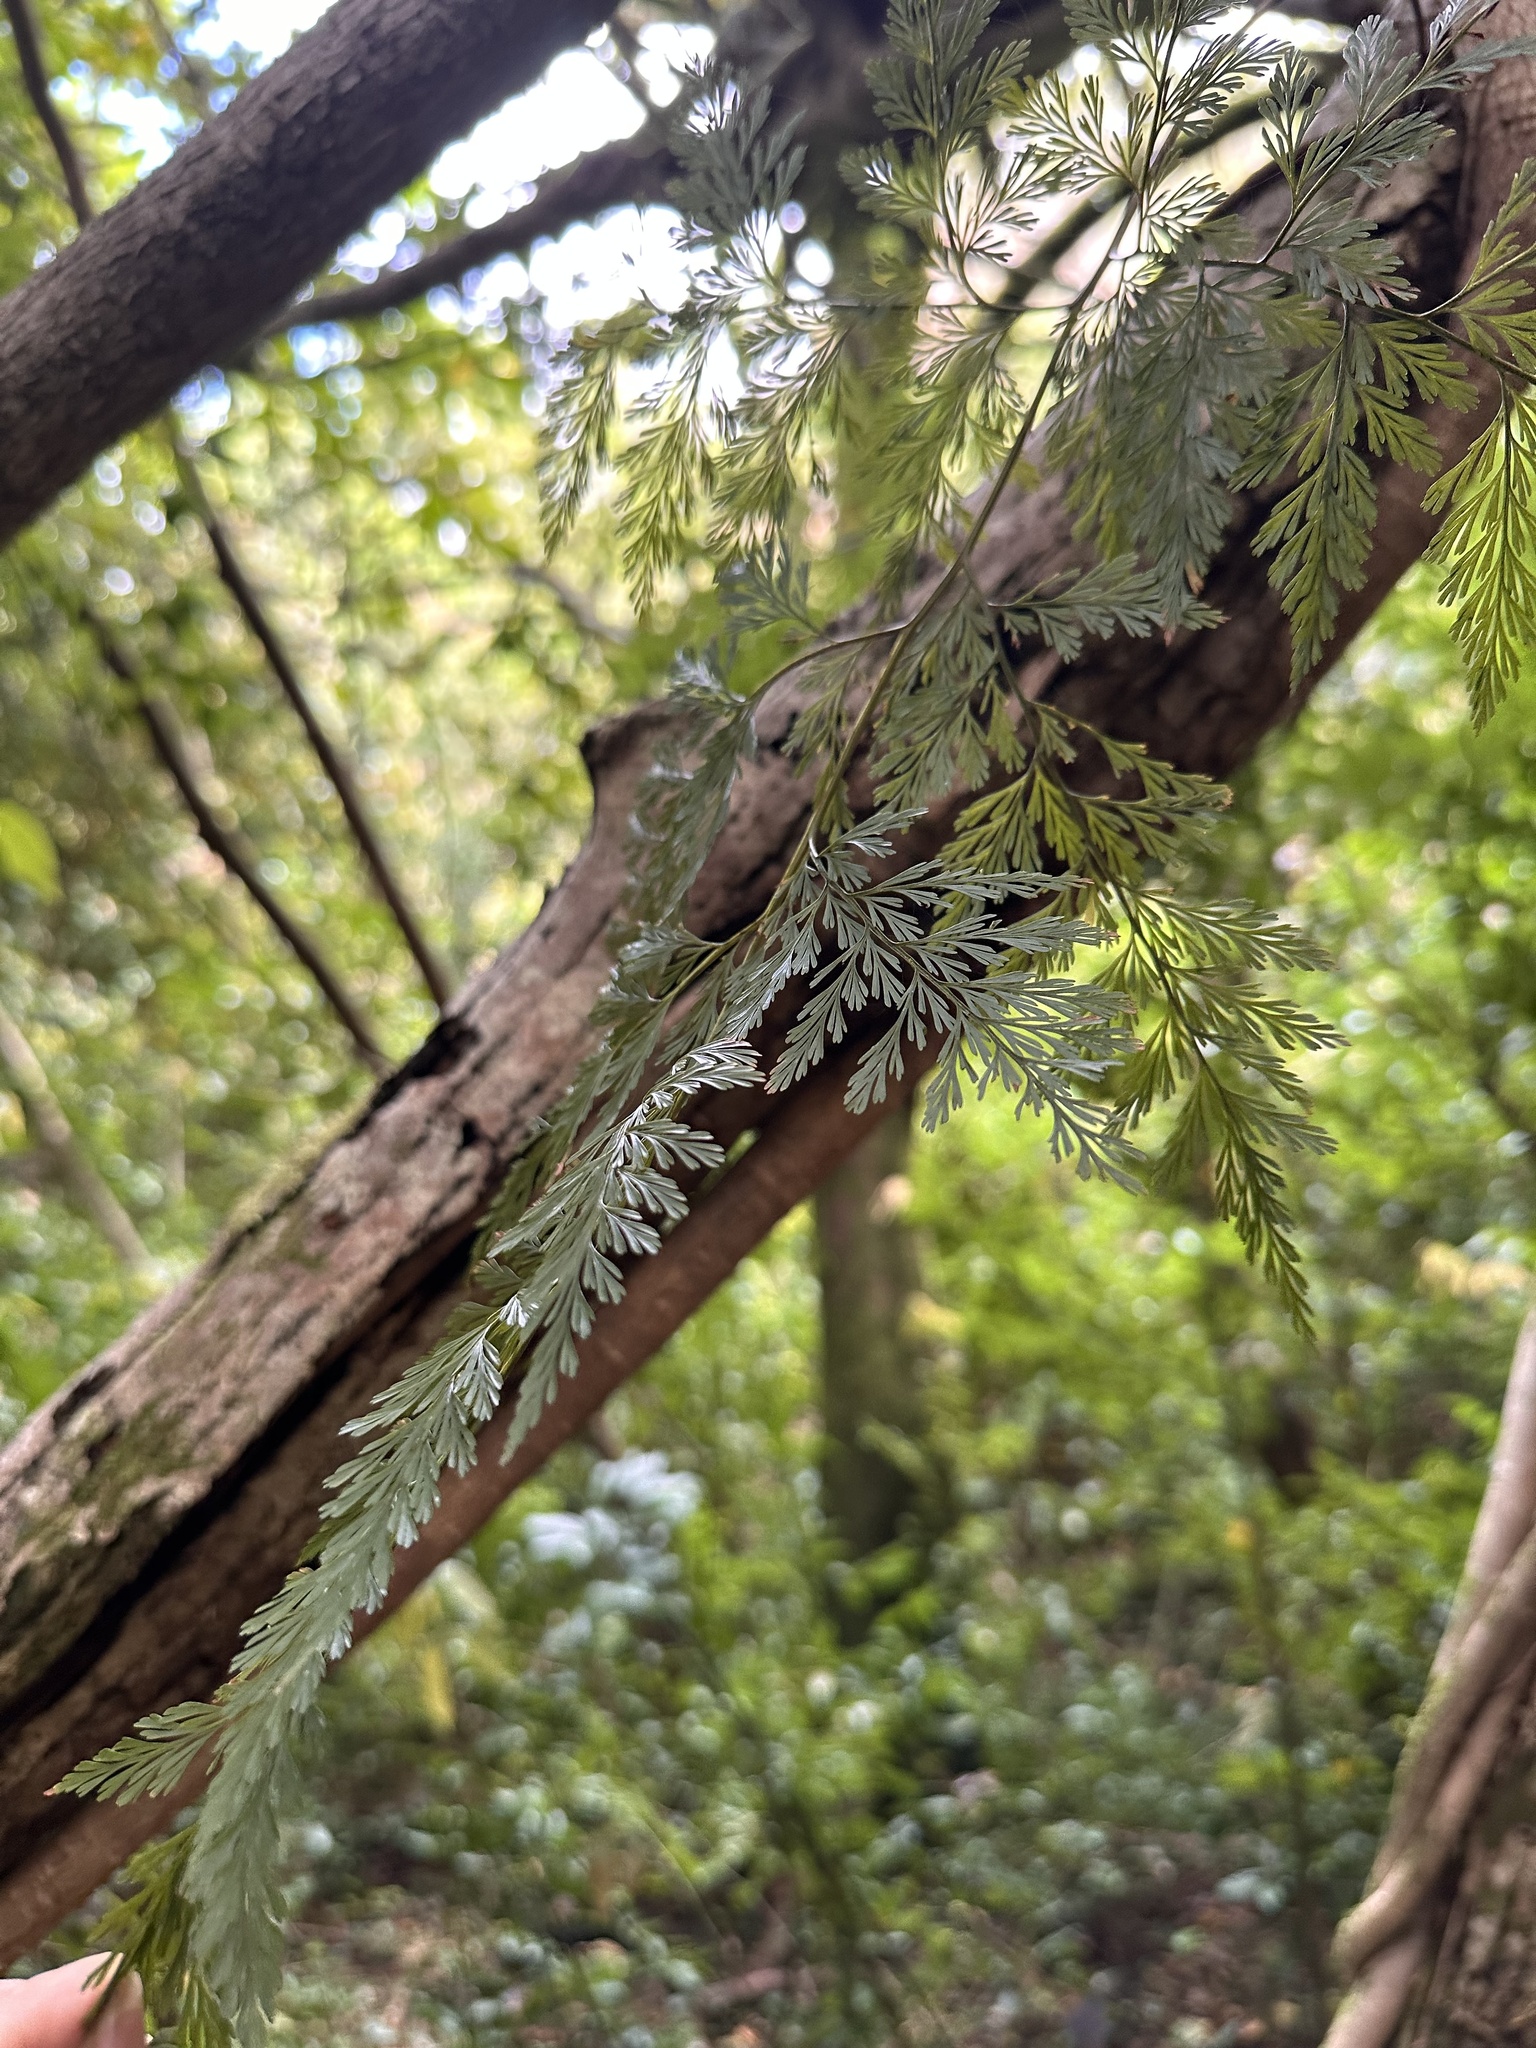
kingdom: Plantae
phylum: Tracheophyta
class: Polypodiopsida
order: Polypodiales
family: Davalliaceae
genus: Davallia
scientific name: Davallia fejeensis
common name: Lacy hare's-foot fern
